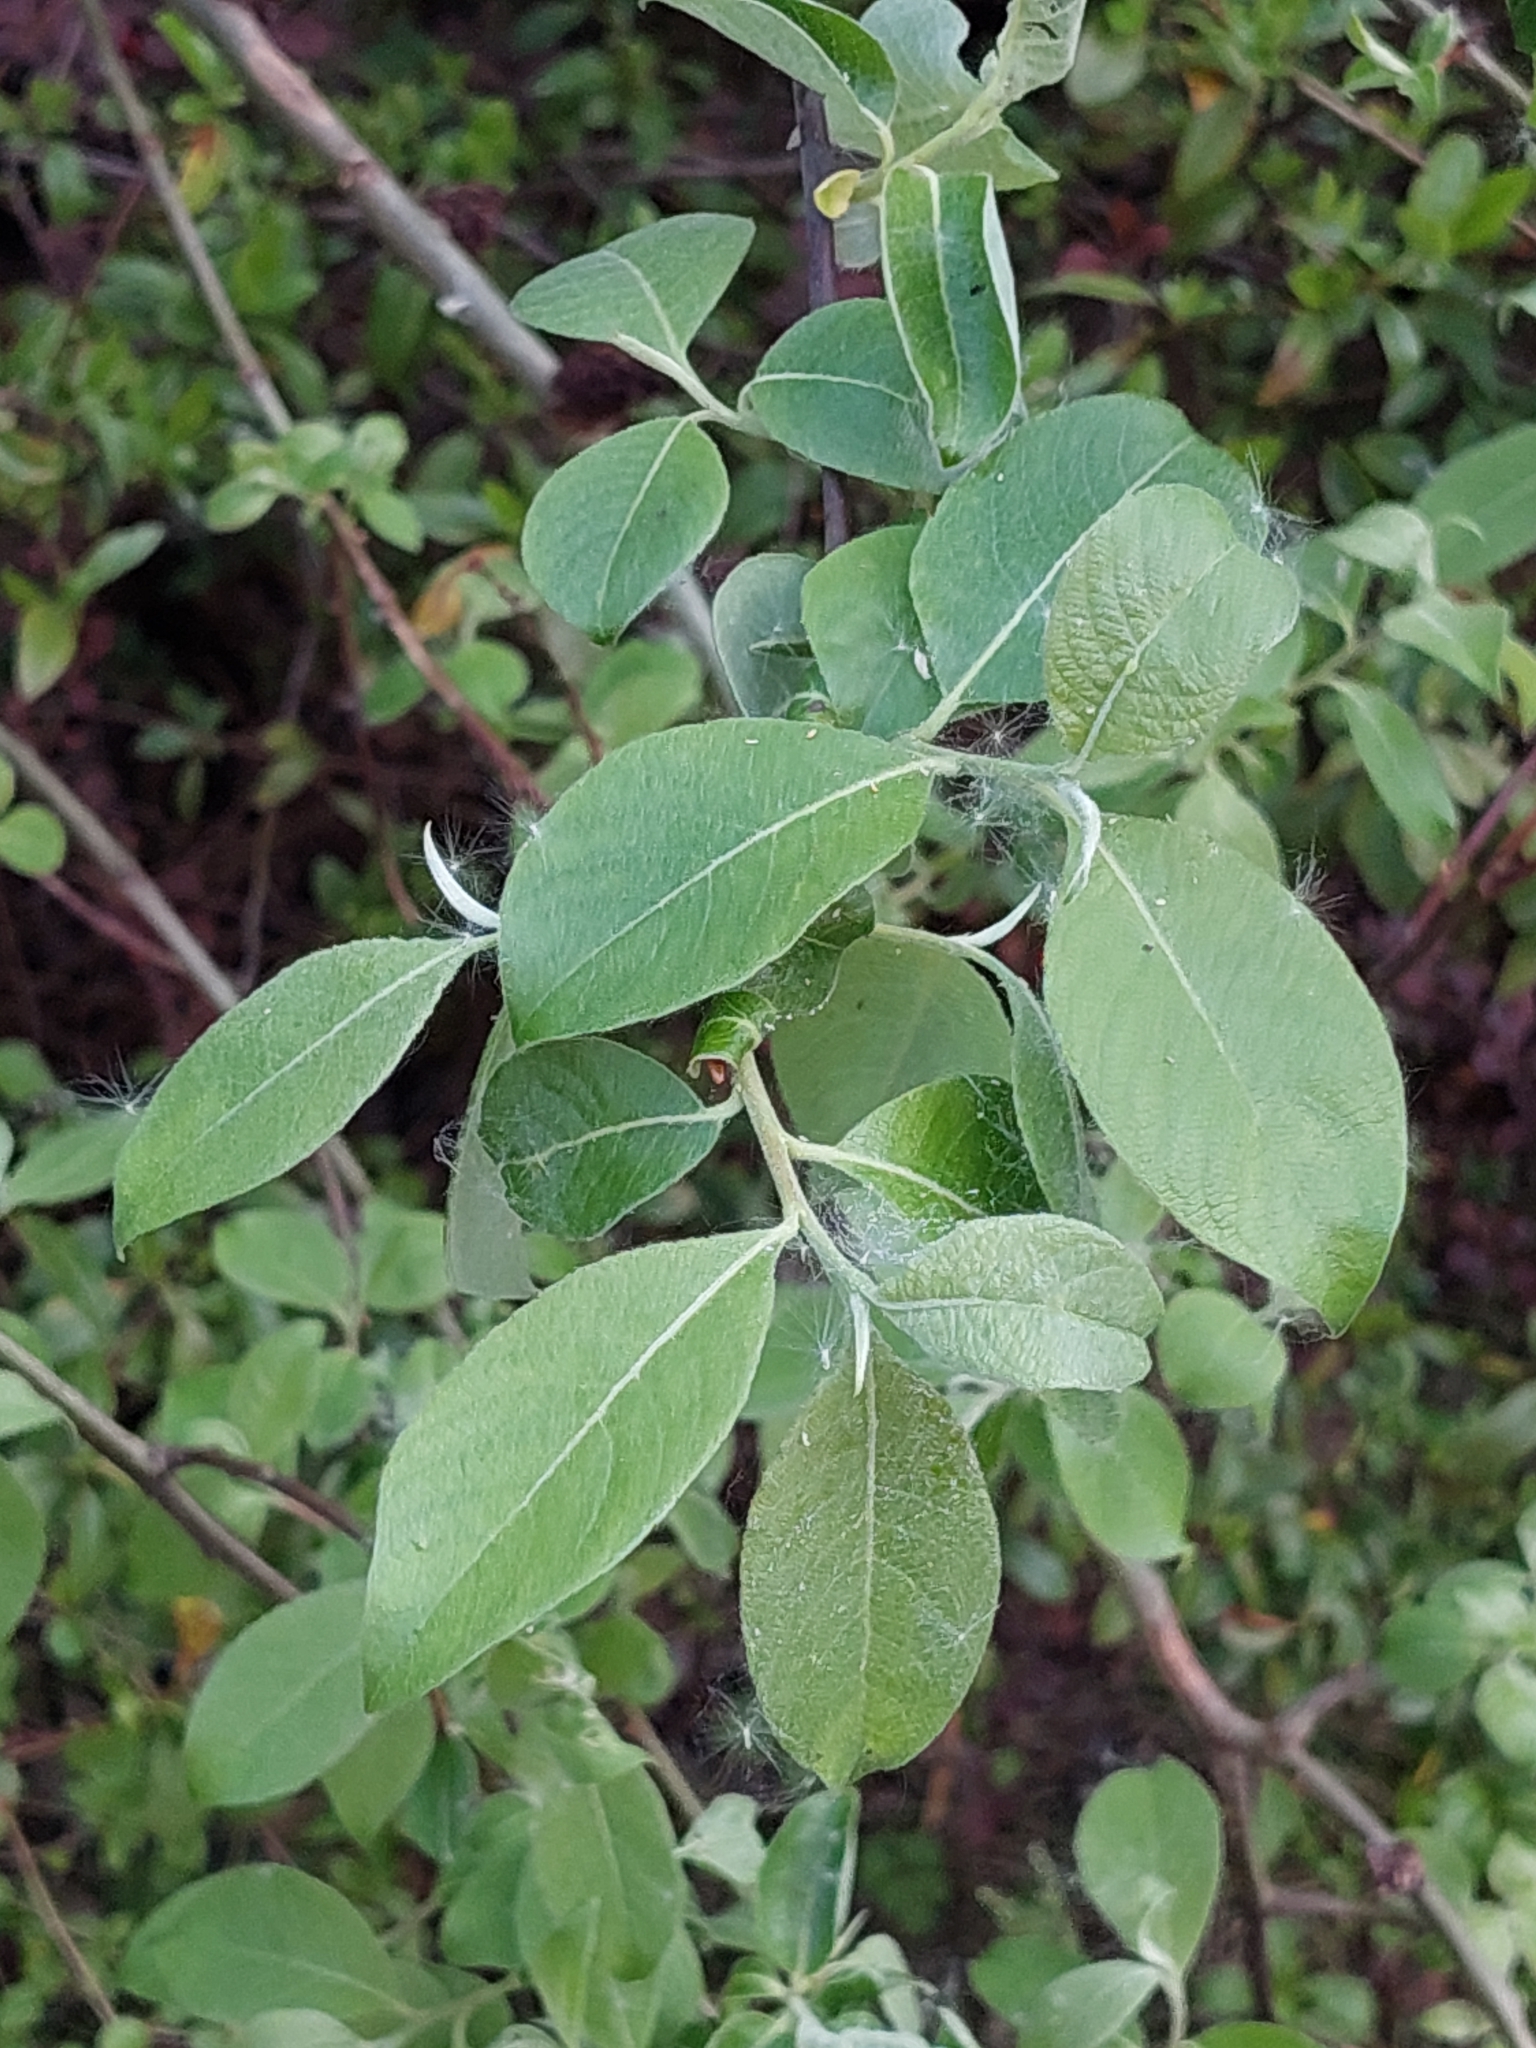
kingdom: Plantae
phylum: Tracheophyta
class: Magnoliopsida
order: Malpighiales
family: Salicaceae
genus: Salix
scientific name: Salix caprea
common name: Goat willow
